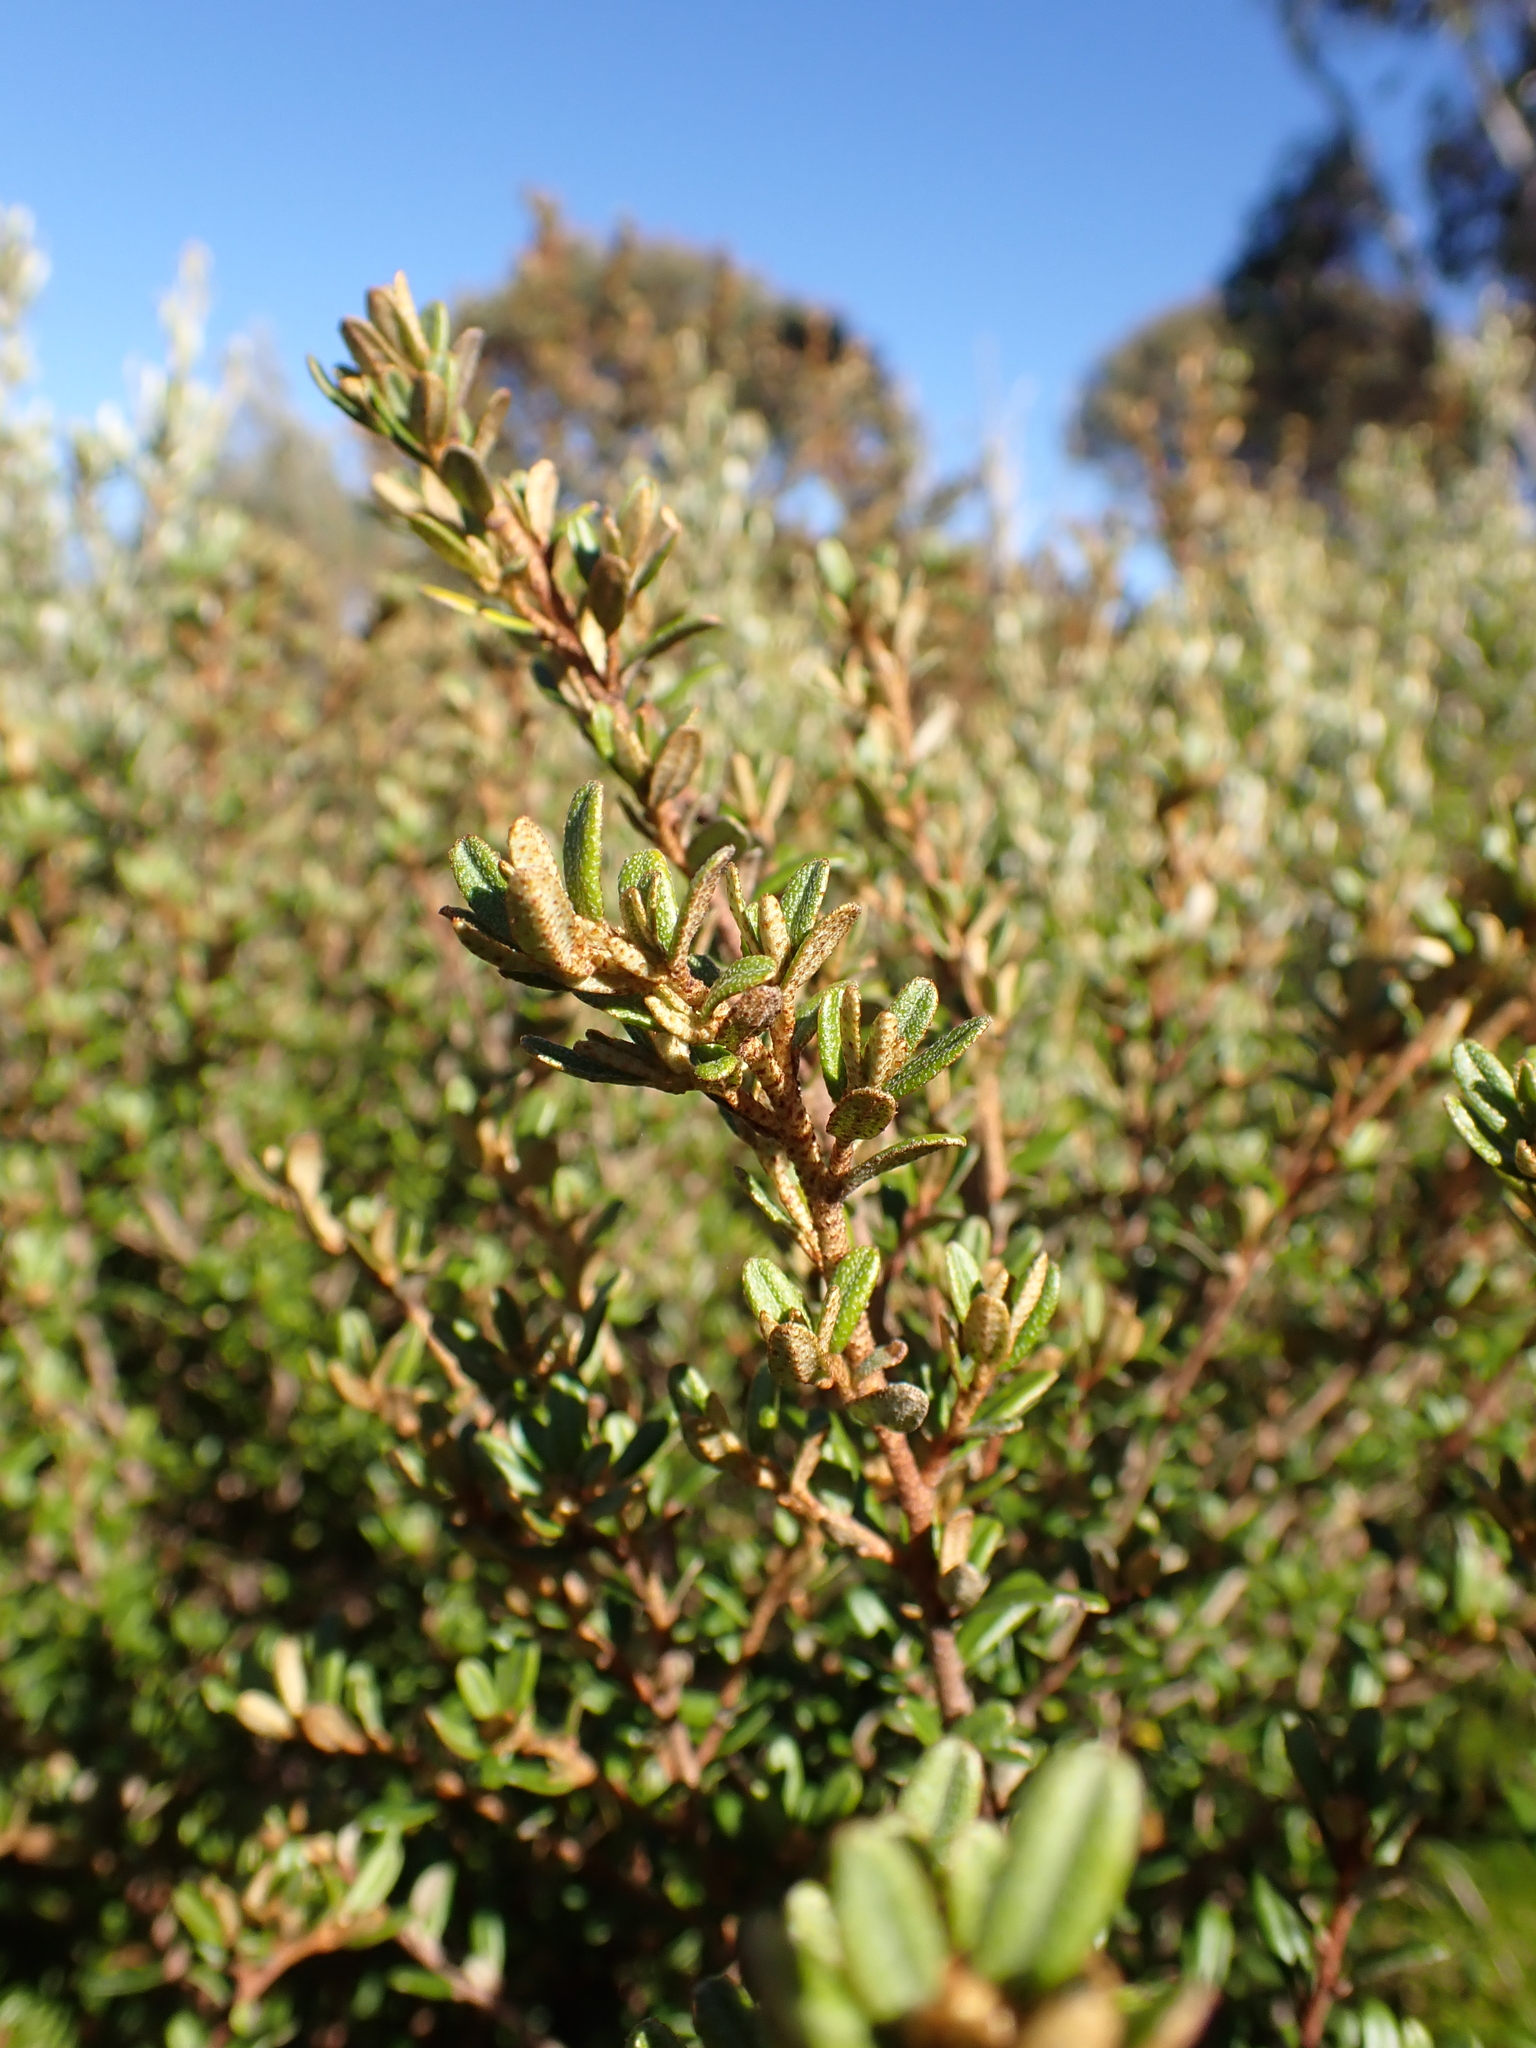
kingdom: Plantae
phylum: Tracheophyta
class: Magnoliopsida
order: Sapindales
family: Rutaceae
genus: Phebalium
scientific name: Phebalium squamulosum
